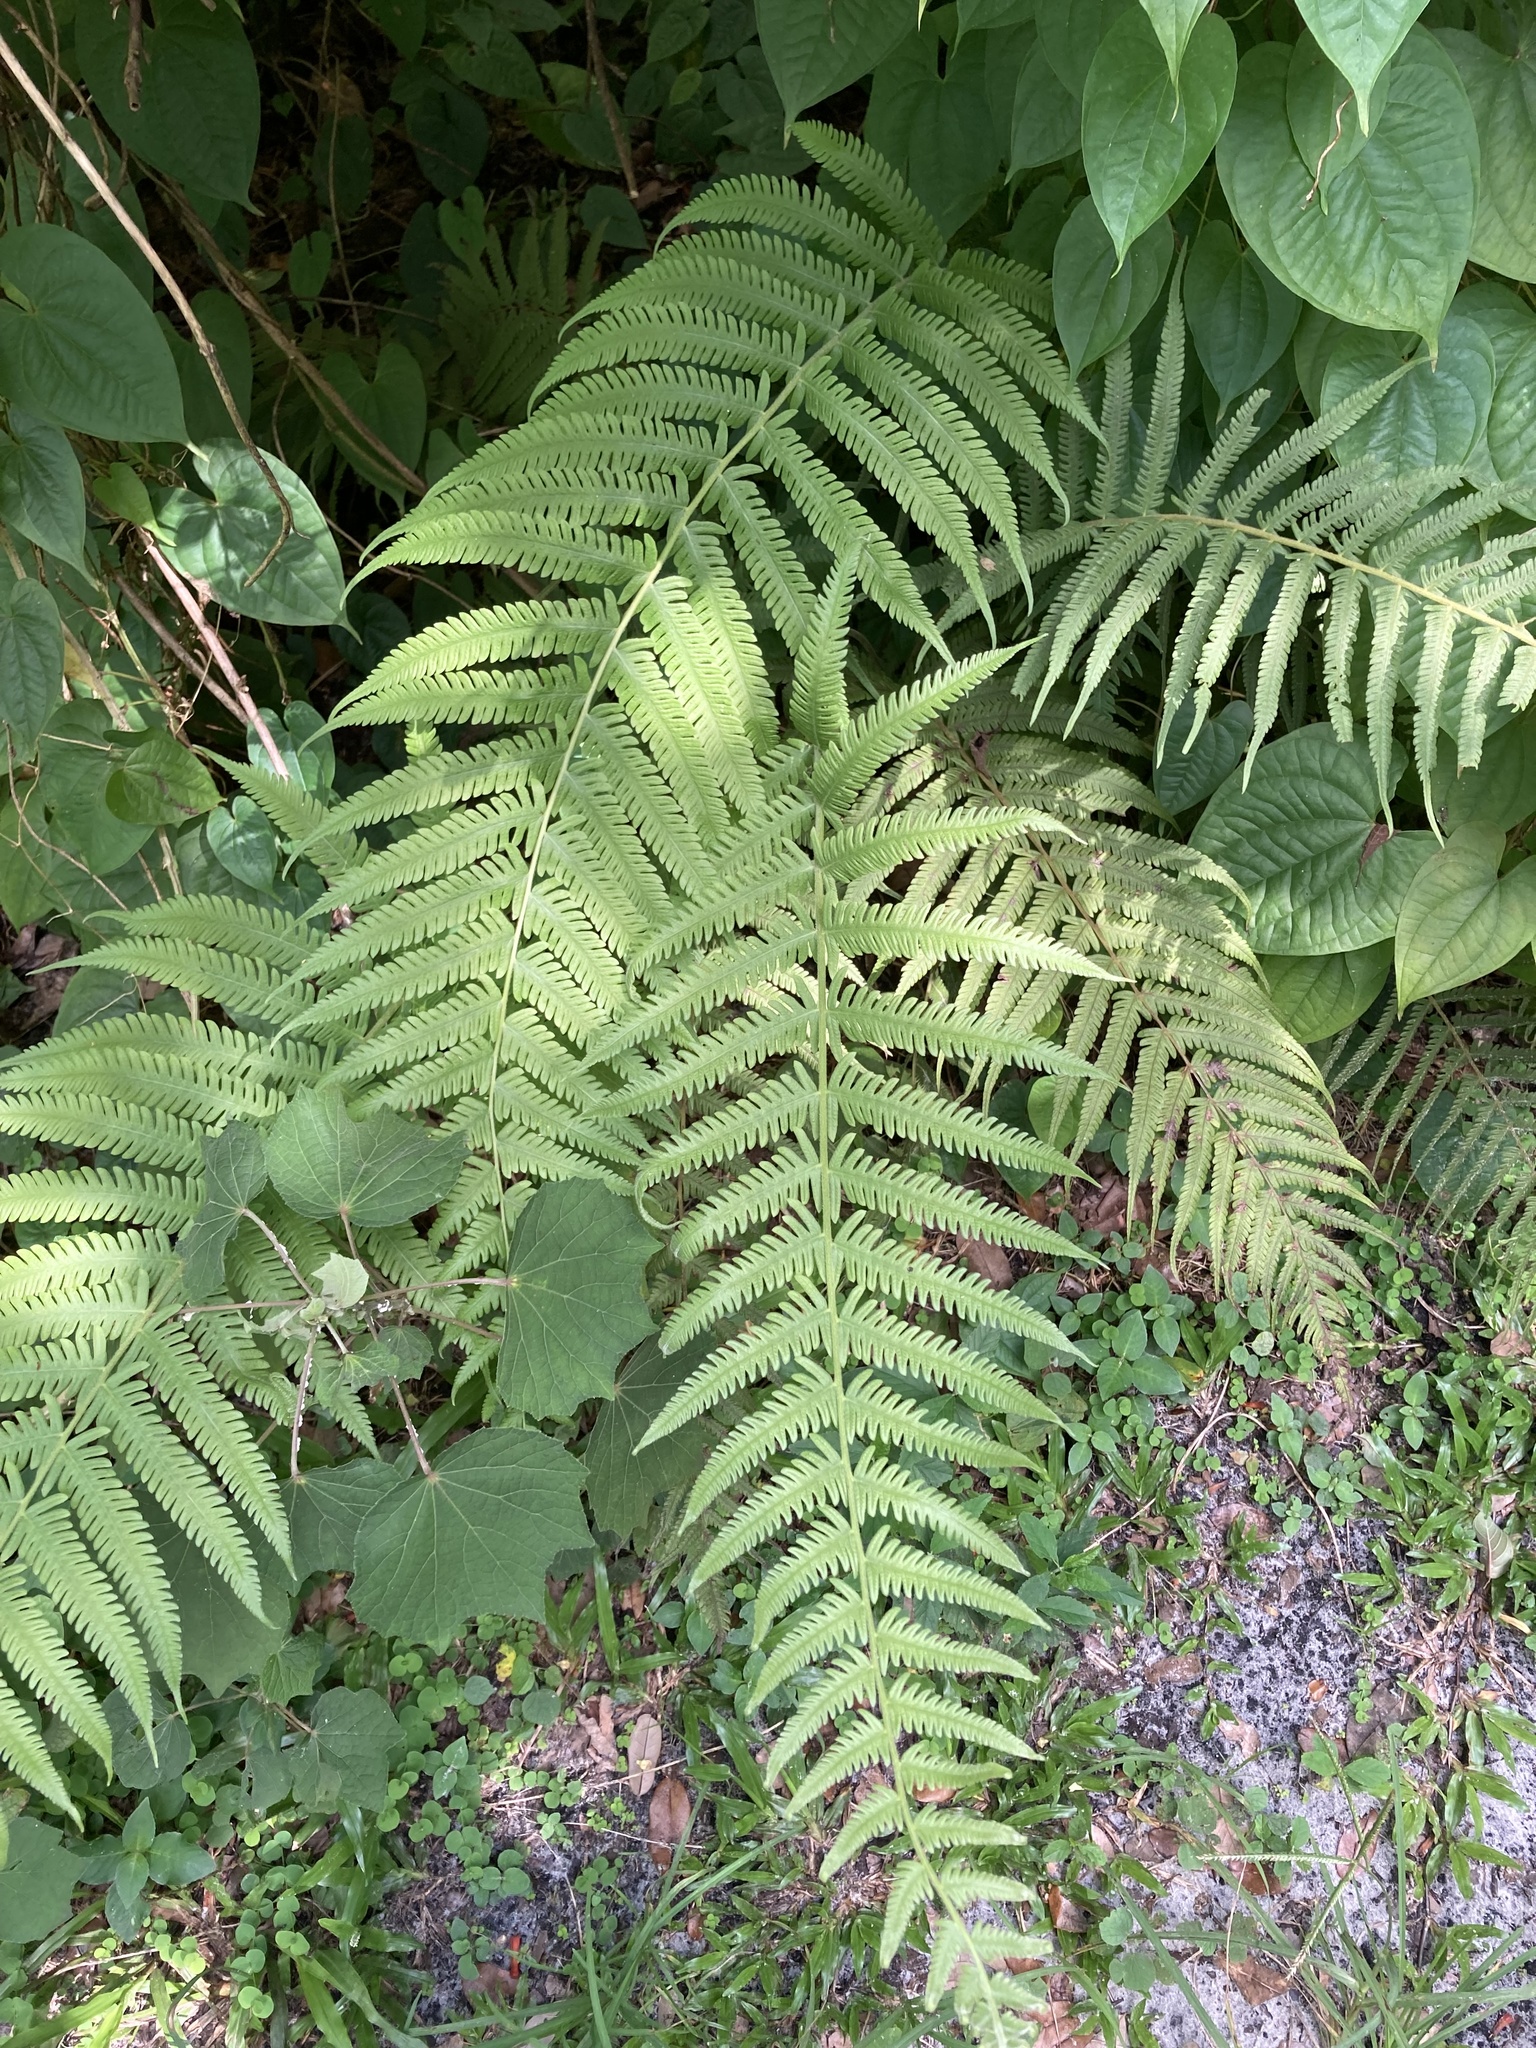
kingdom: Plantae
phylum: Tracheophyta
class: Polypodiopsida
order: Polypodiales
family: Thelypteridaceae
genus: Pelazoneuron
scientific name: Pelazoneuron kunthii
